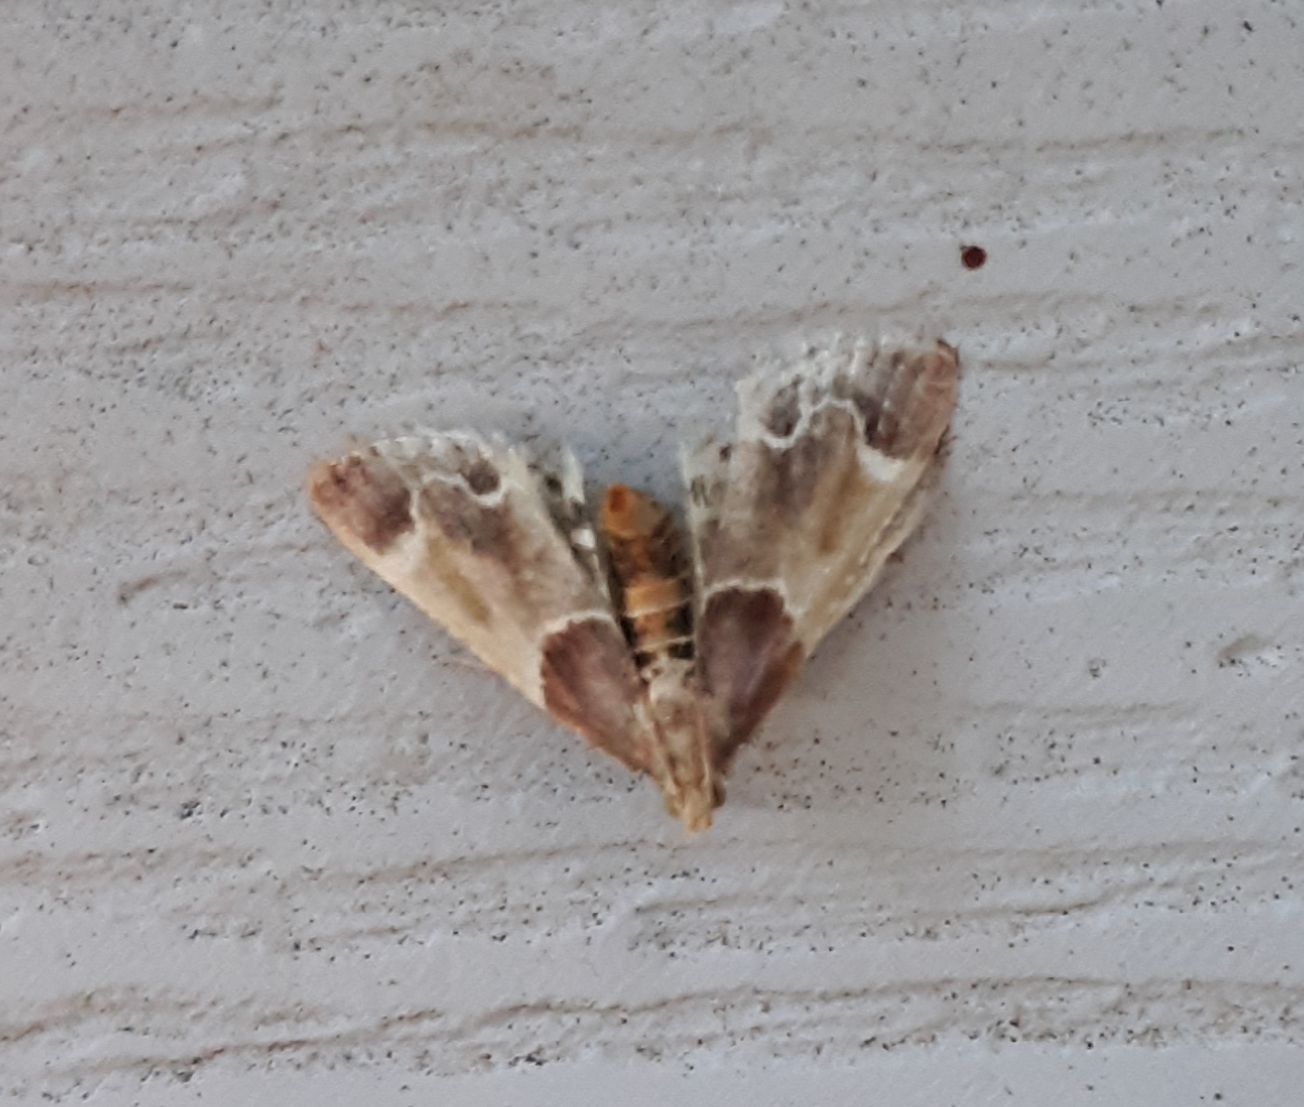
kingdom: Animalia
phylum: Arthropoda
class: Insecta
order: Lepidoptera
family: Pyralidae
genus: Pyralis
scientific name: Pyralis farinalis
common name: Meal moth
